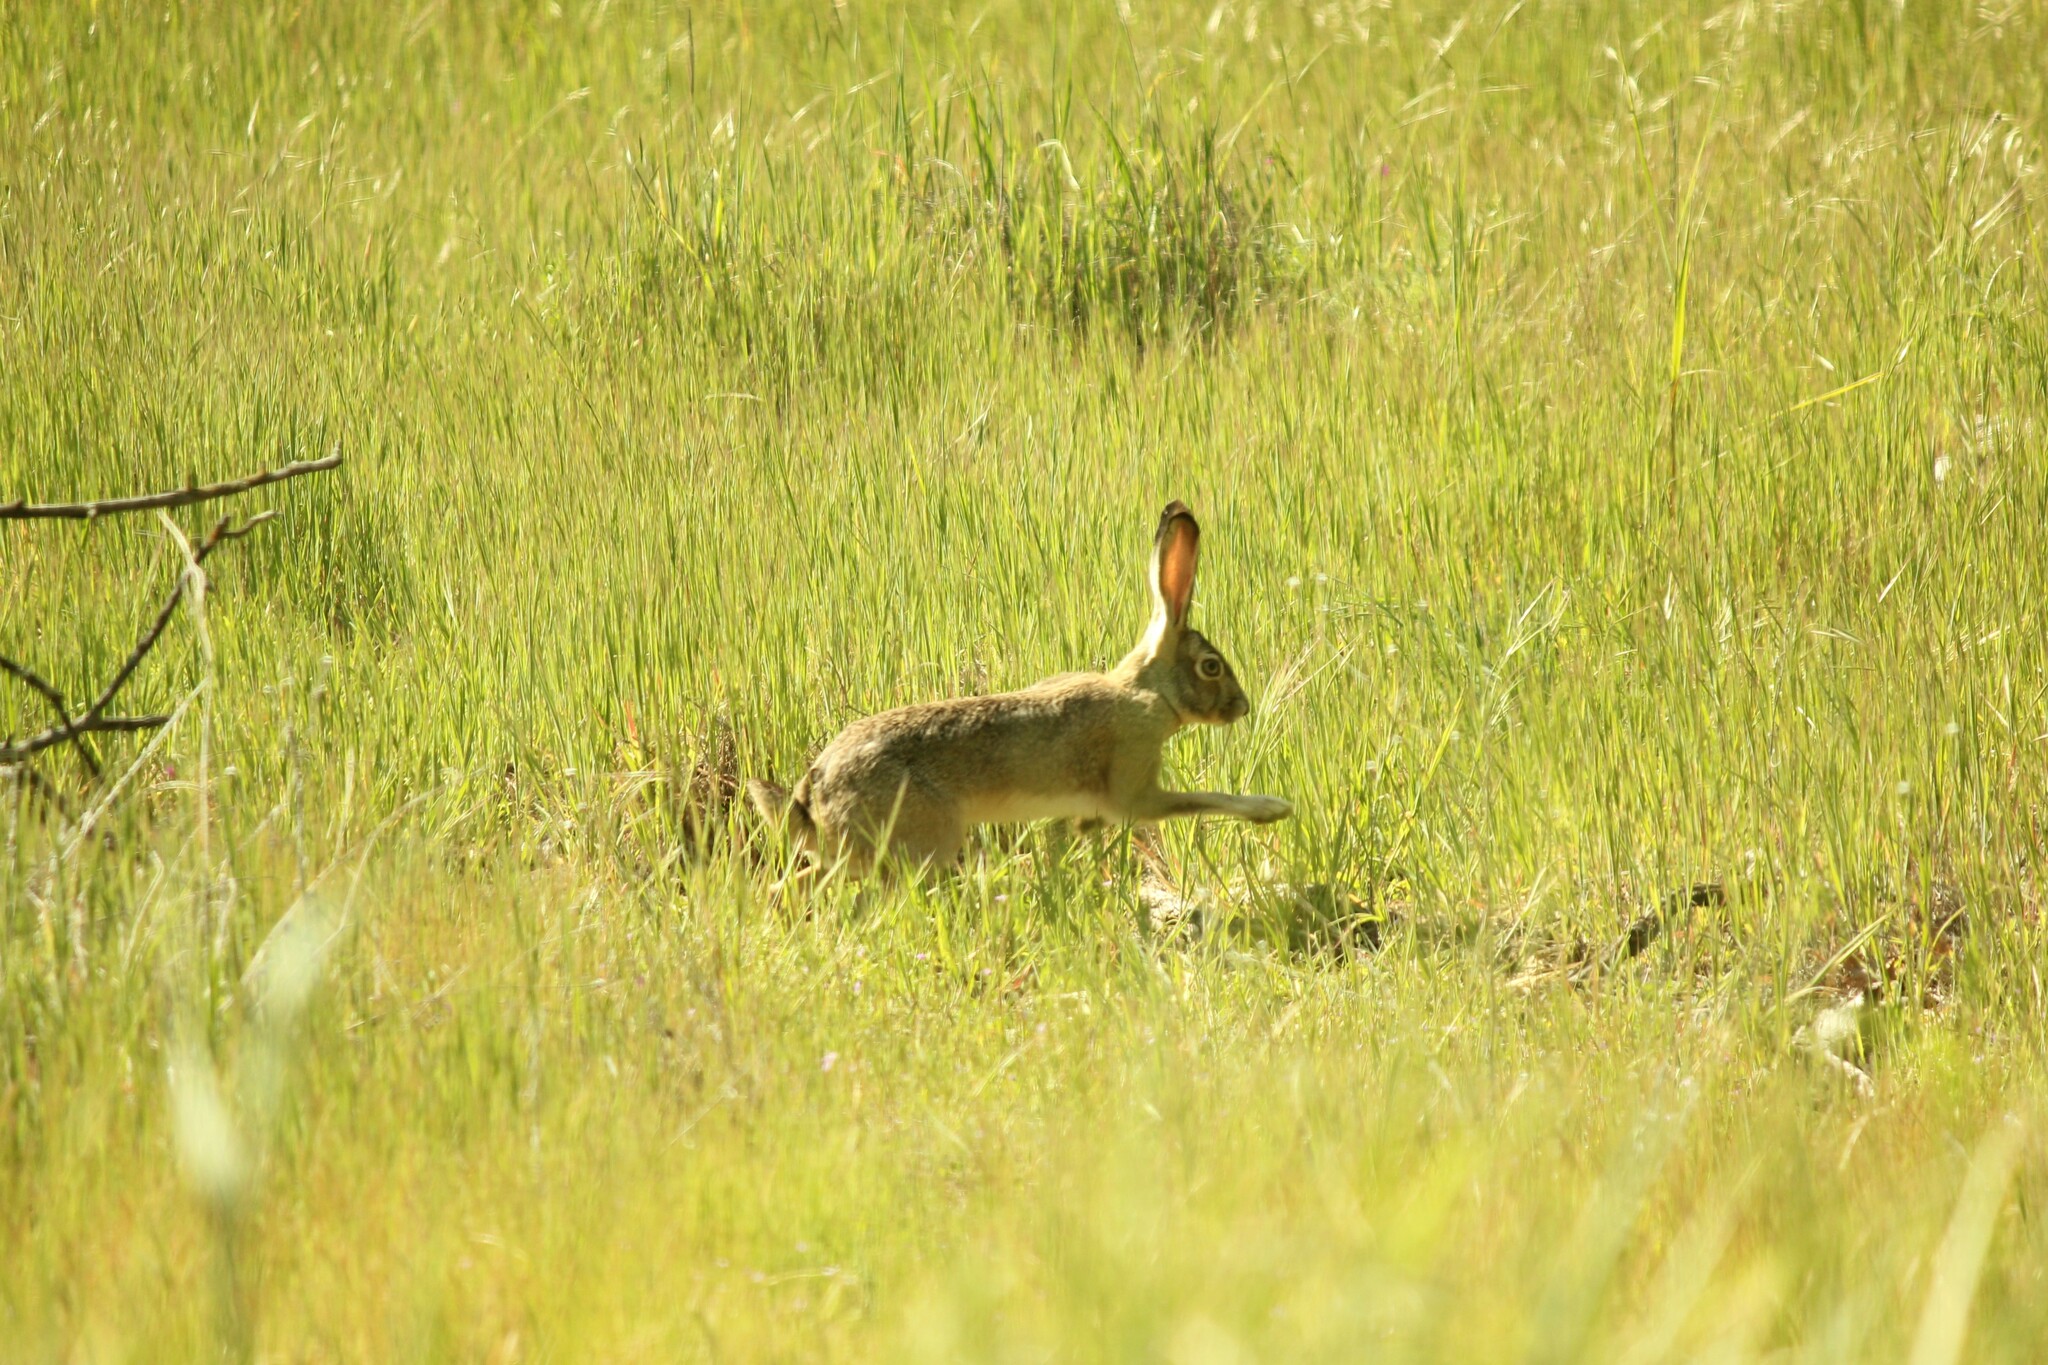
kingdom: Animalia
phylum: Chordata
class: Mammalia
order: Lagomorpha
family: Leporidae
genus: Lepus
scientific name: Lepus californicus
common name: Black-tailed jackrabbit
